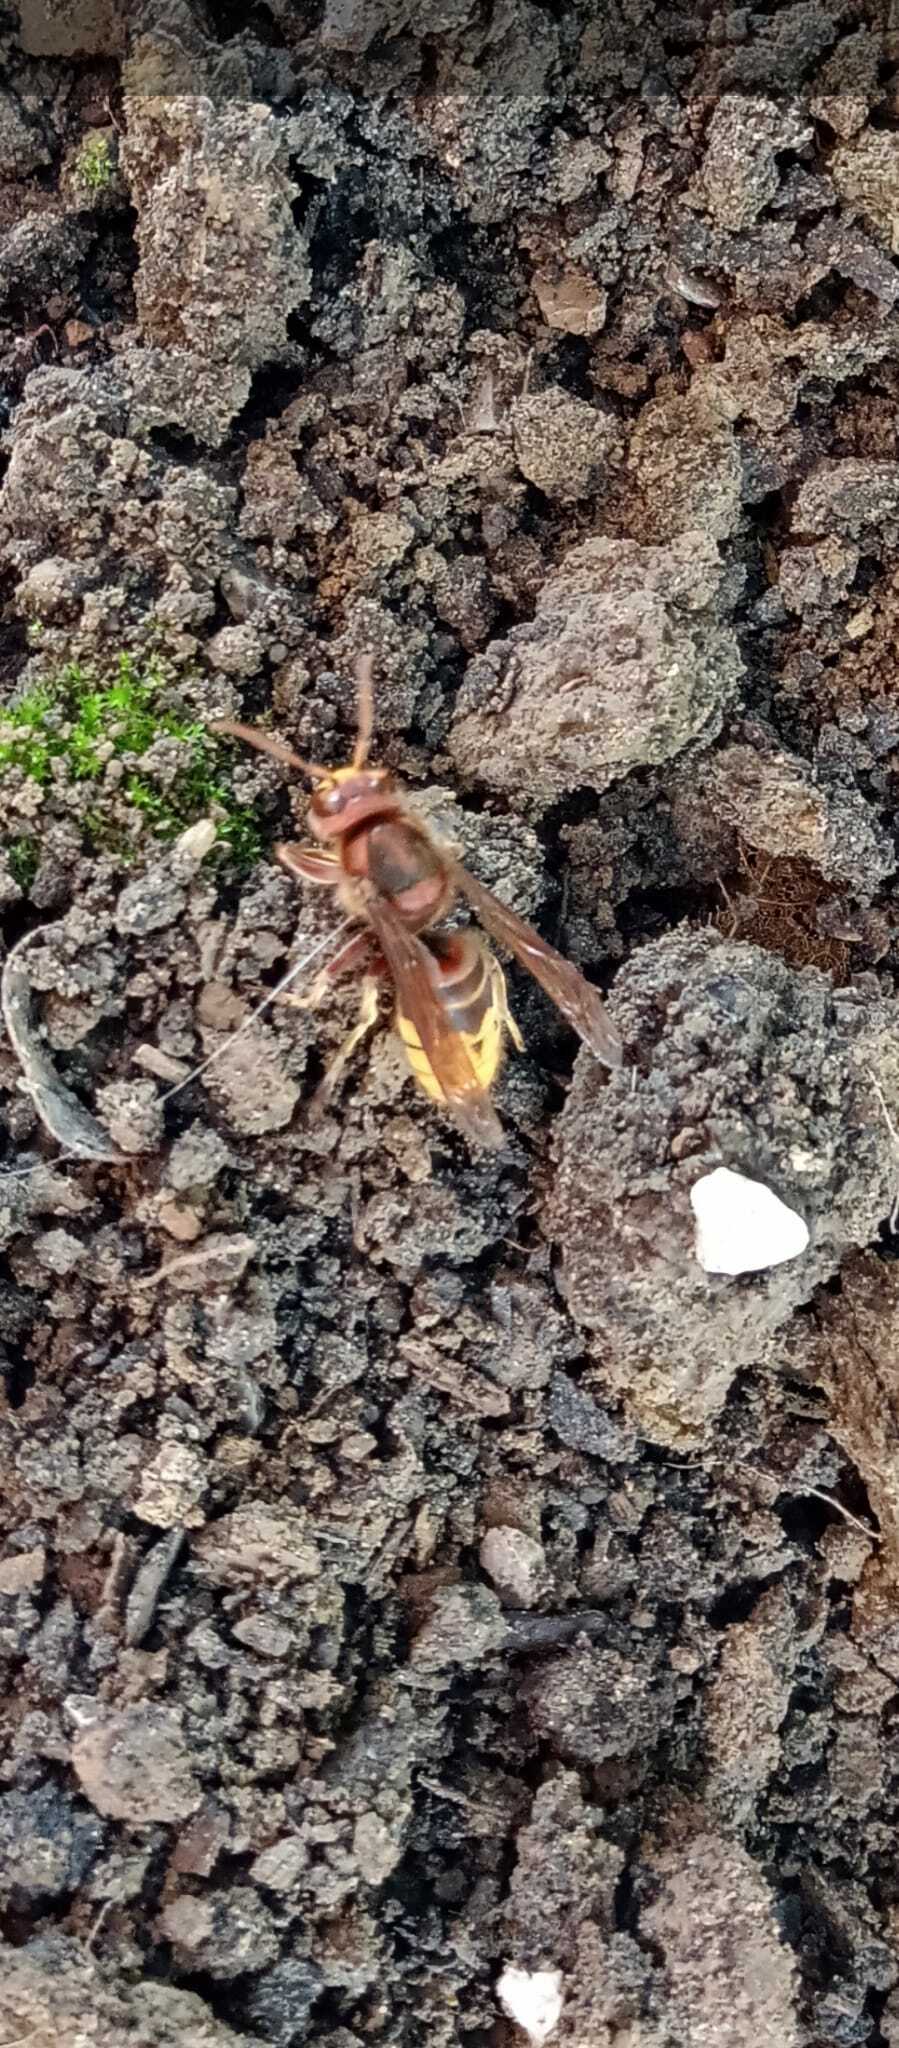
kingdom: Animalia
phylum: Arthropoda
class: Insecta
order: Hymenoptera
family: Vespidae
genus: Vespa
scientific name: Vespa crabro
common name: Hornet
